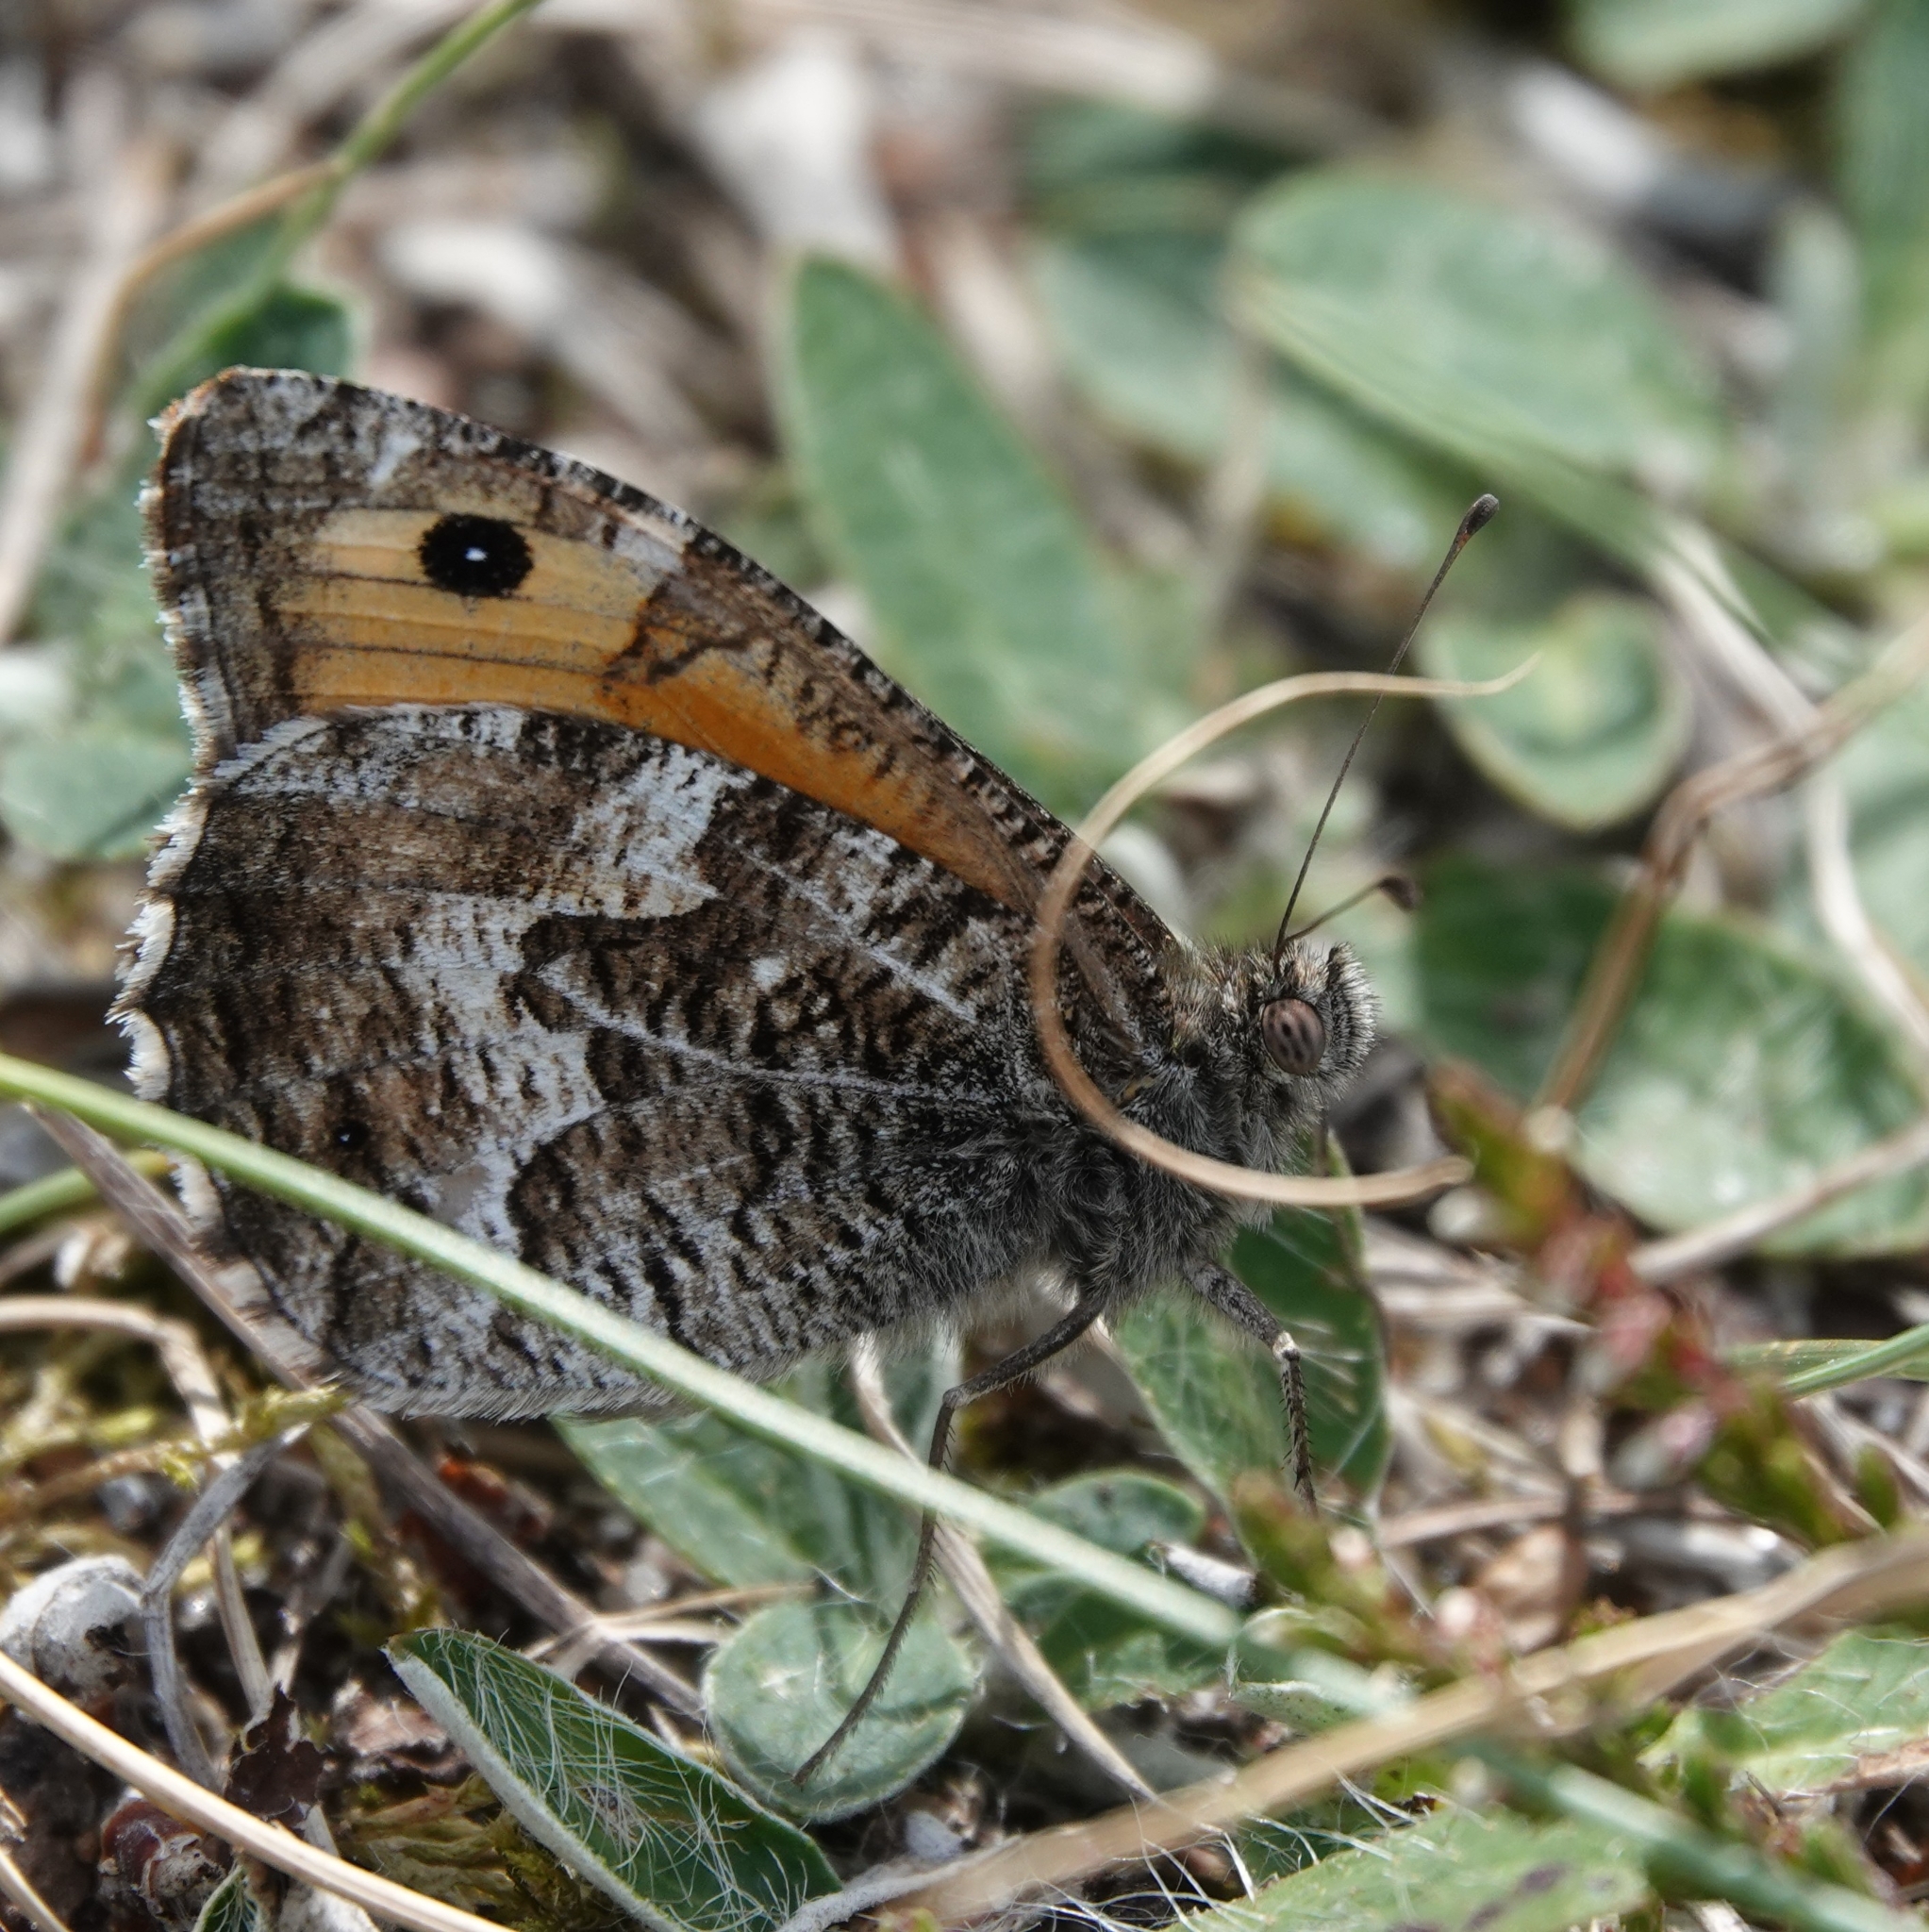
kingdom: Animalia
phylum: Arthropoda
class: Insecta
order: Lepidoptera
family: Nymphalidae
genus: Hipparchia
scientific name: Hipparchia semele
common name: Grayling
